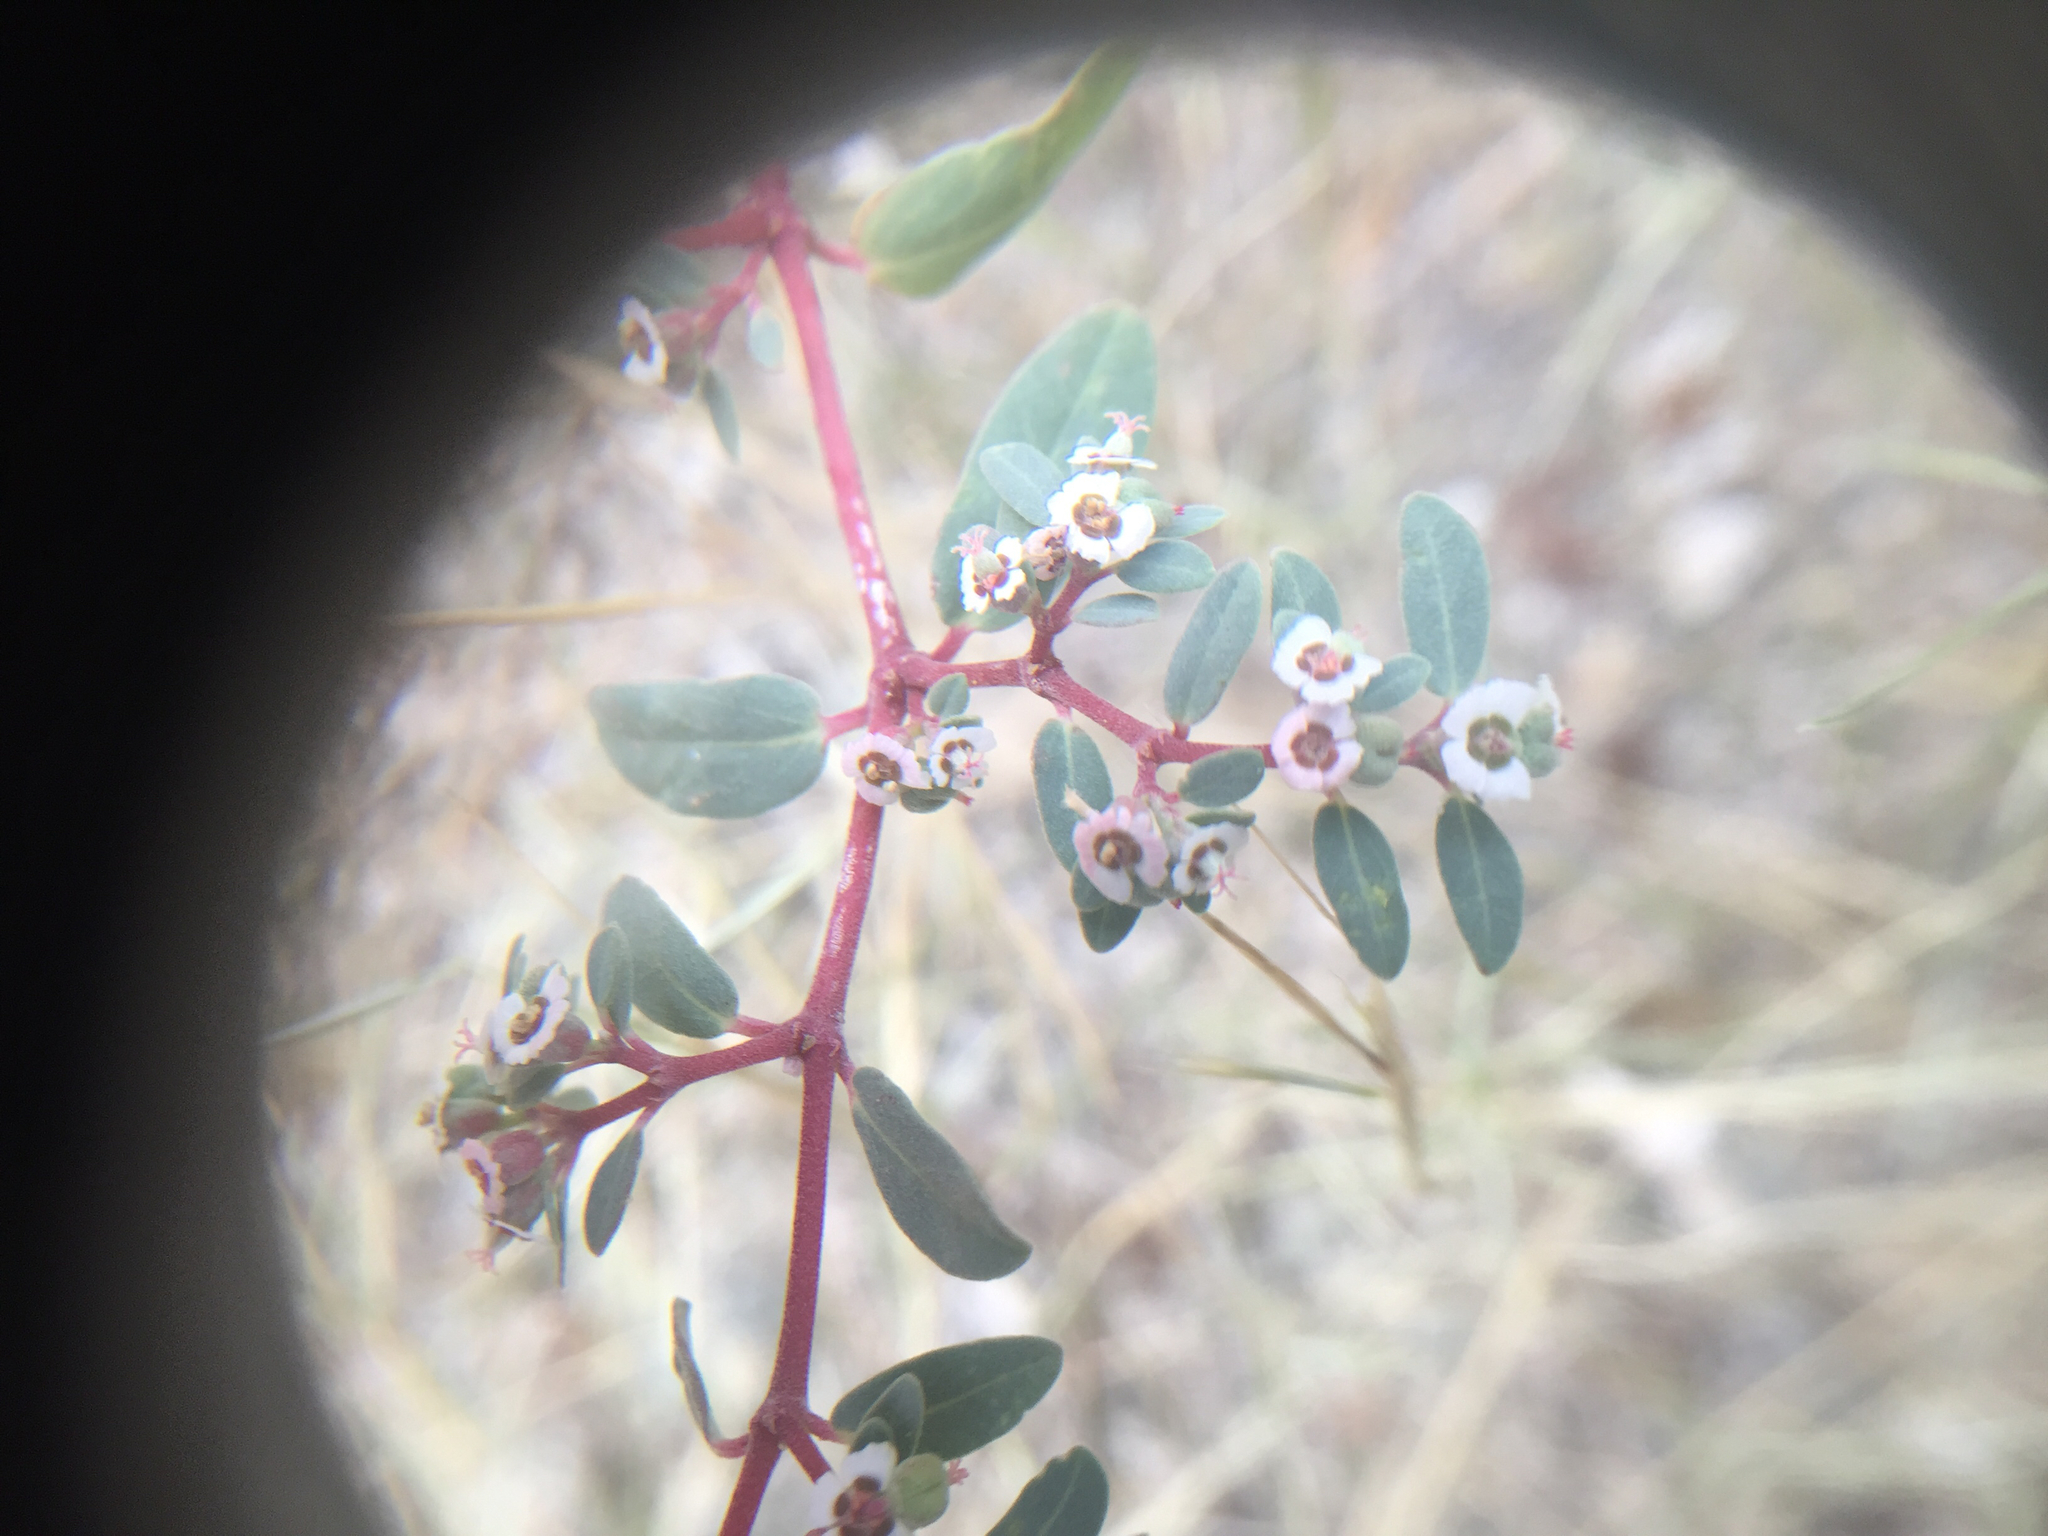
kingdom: Plantae
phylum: Tracheophyta
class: Magnoliopsida
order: Malpighiales
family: Euphorbiaceae
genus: Euphorbia
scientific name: Euphorbia pediculifera
